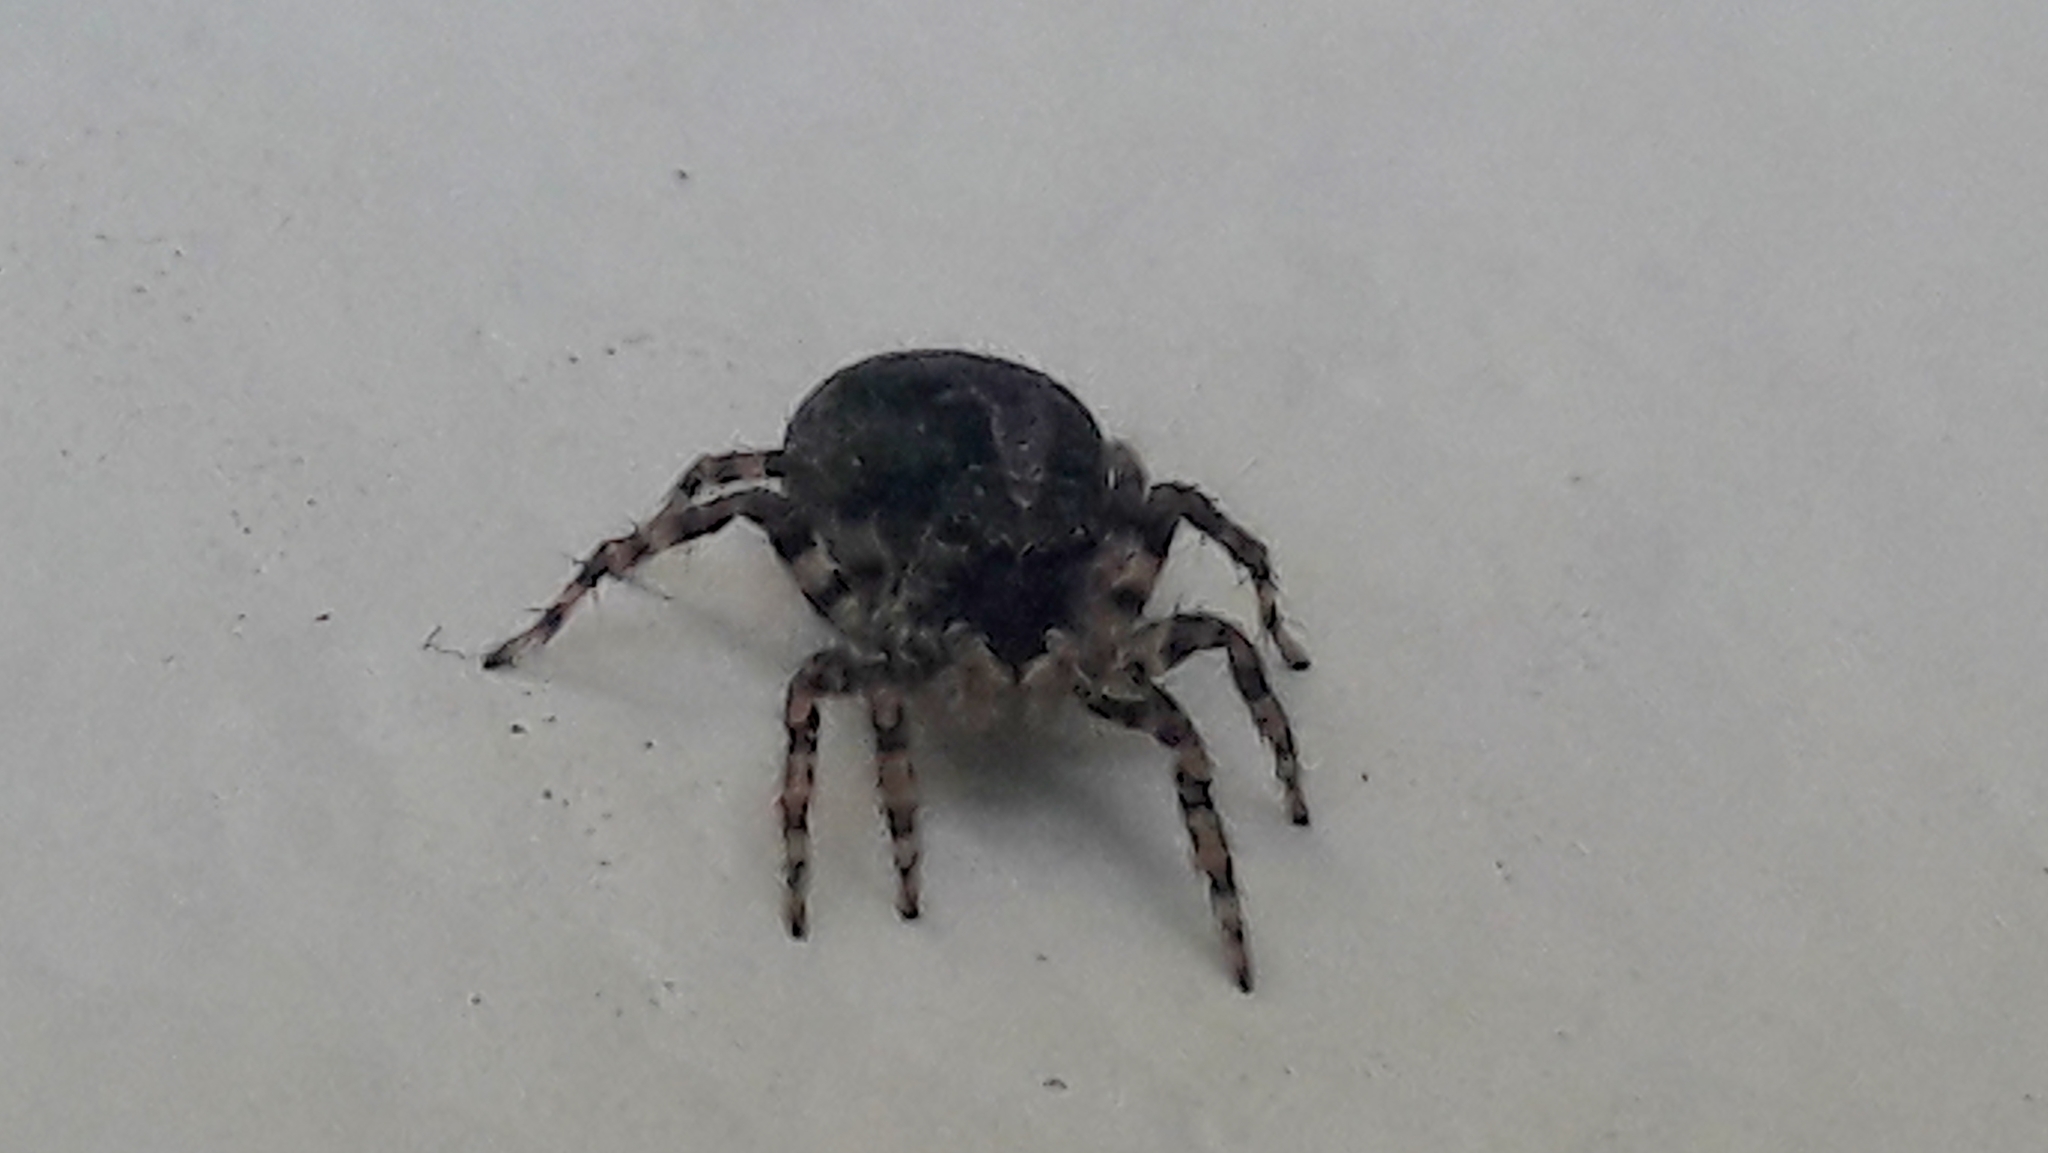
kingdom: Animalia
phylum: Arthropoda
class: Arachnida
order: Araneae
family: Salticidae
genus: Marma
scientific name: Marma nigritarsis
